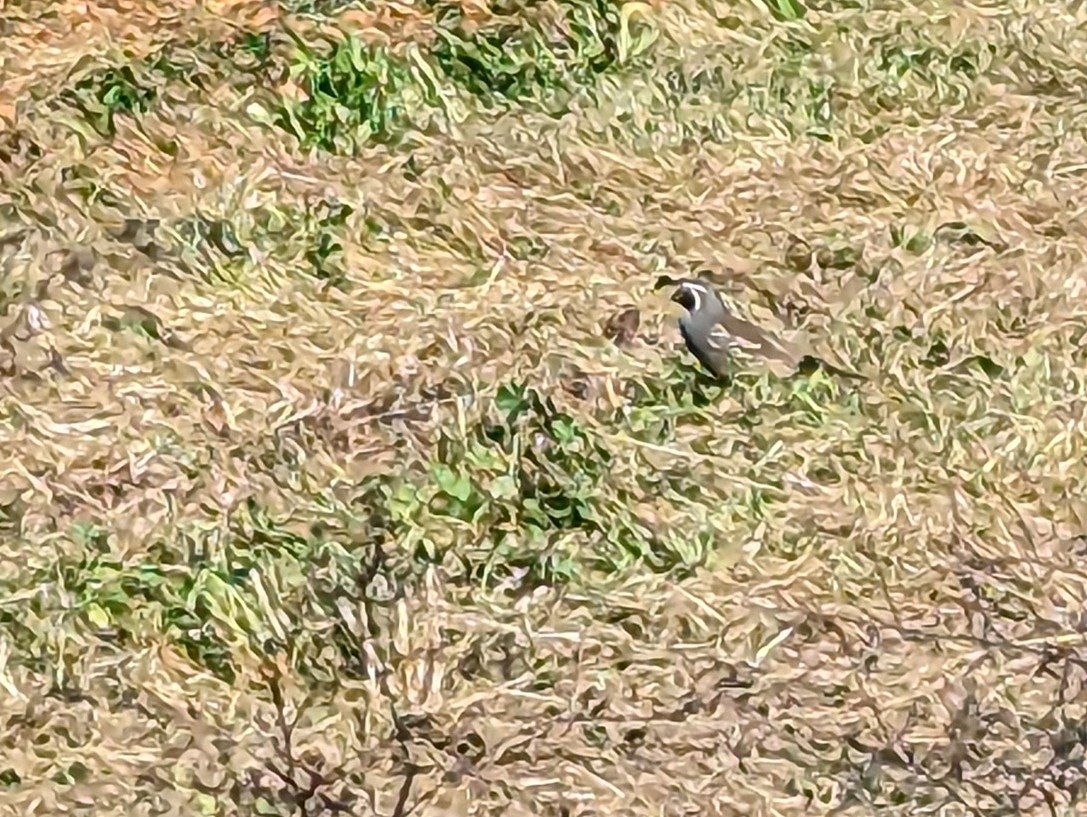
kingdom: Animalia
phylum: Chordata
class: Aves
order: Galliformes
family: Odontophoridae
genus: Callipepla
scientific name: Callipepla californica
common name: California quail
